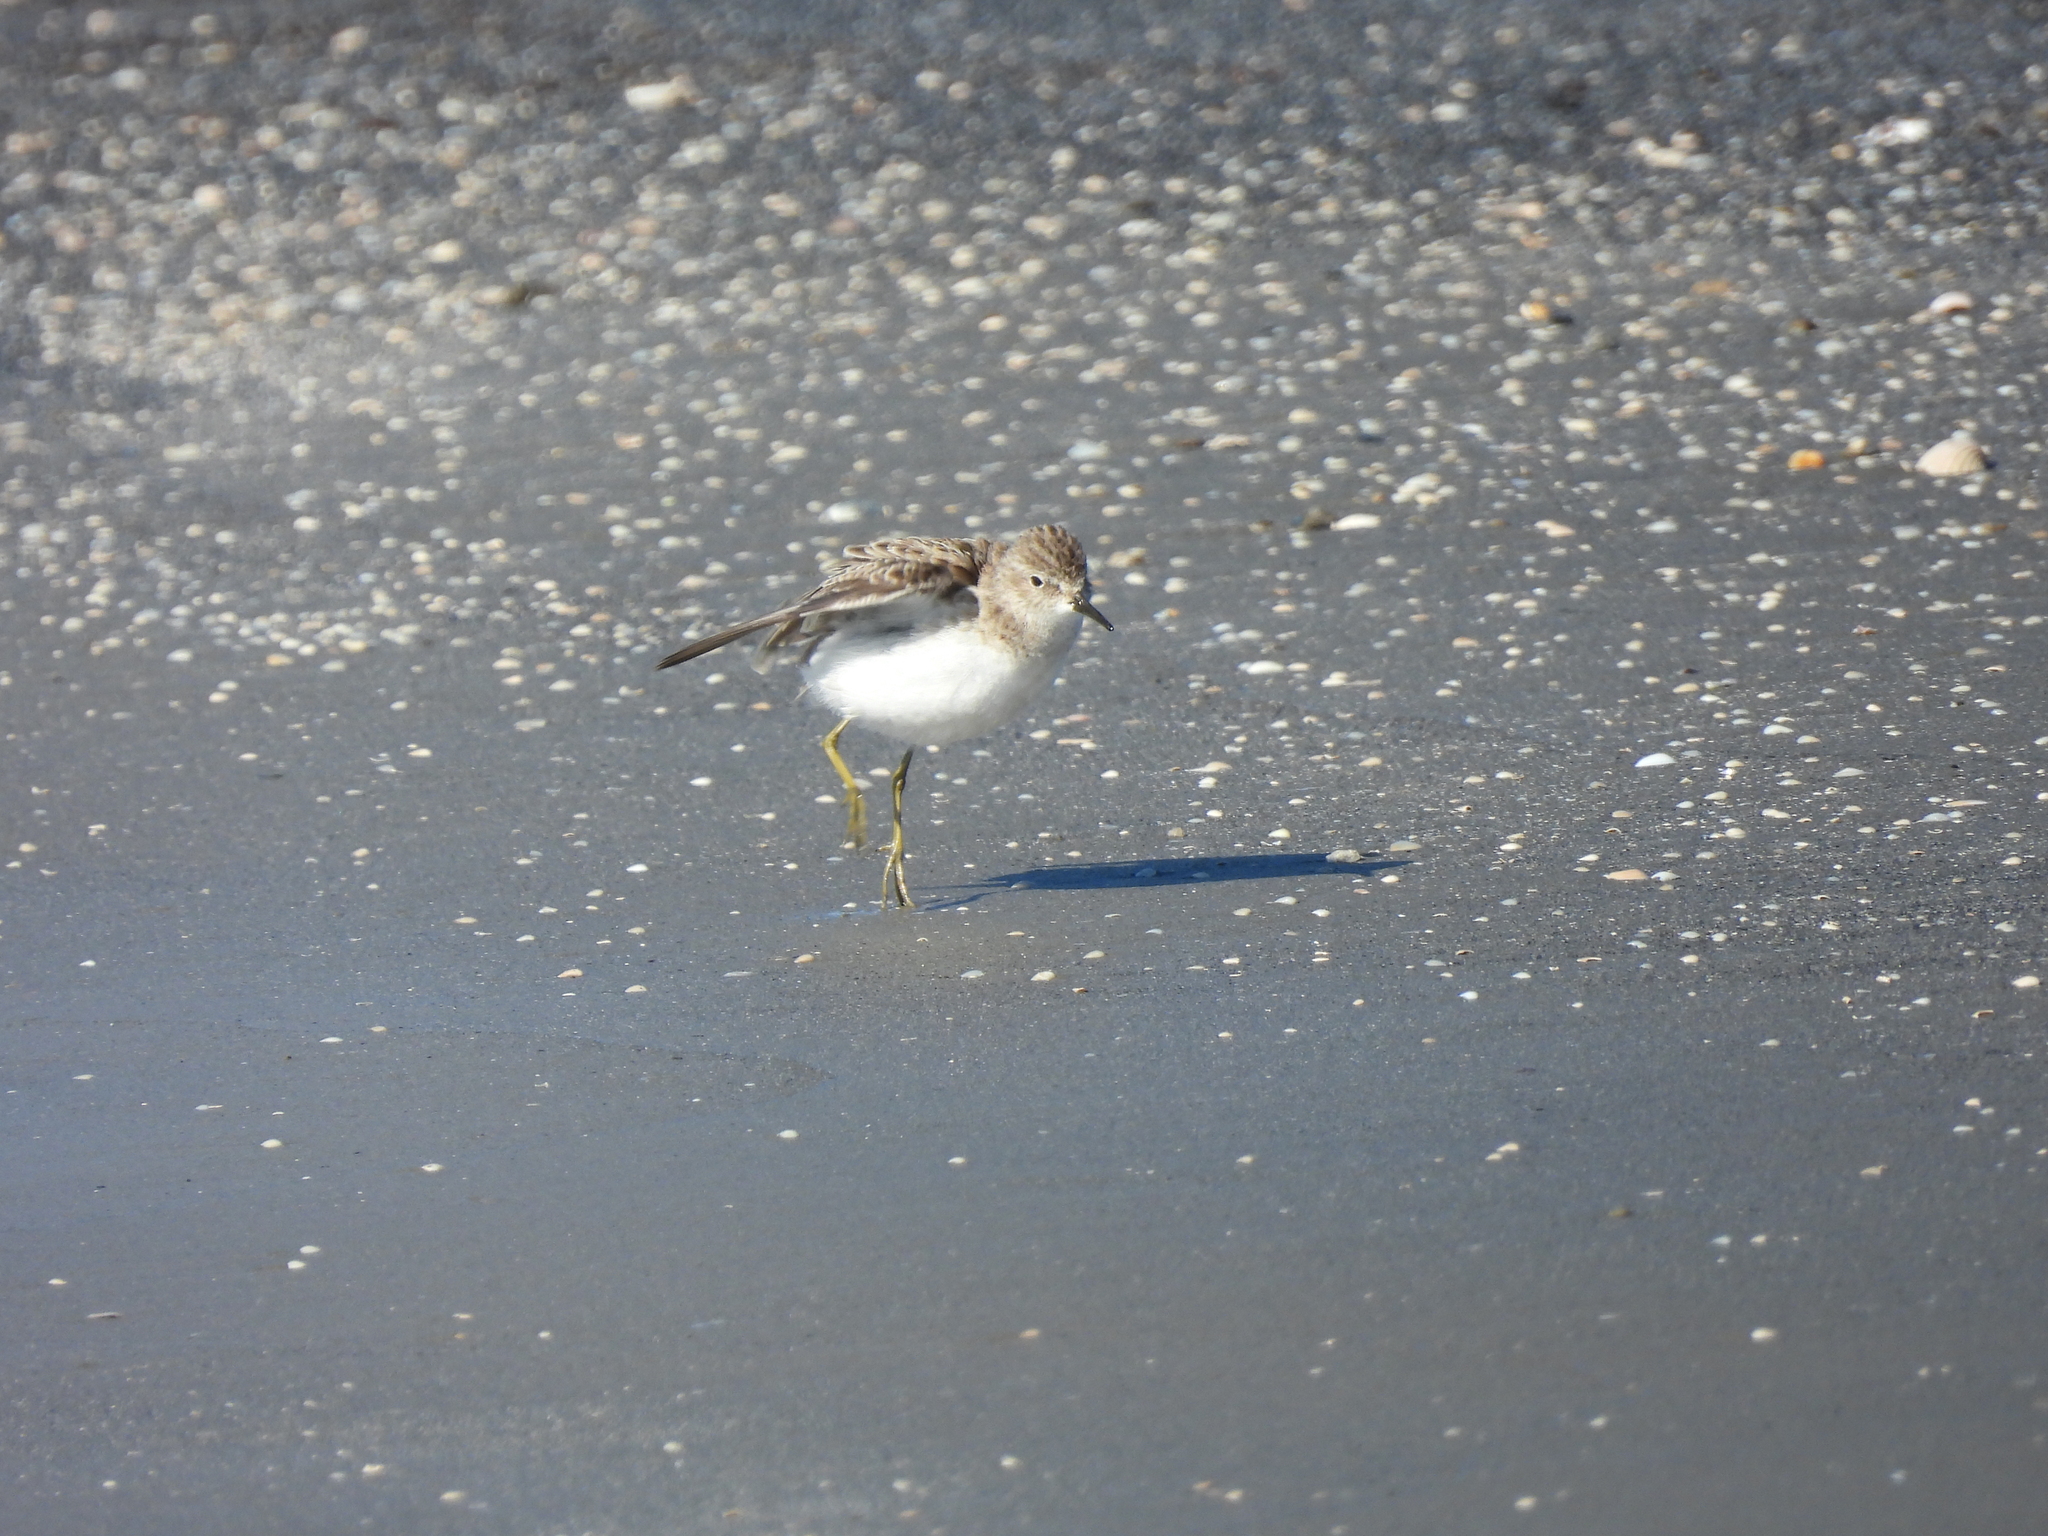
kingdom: Animalia
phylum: Chordata
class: Aves
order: Charadriiformes
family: Scolopacidae
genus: Calidris
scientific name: Calidris minutilla
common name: Least sandpiper
